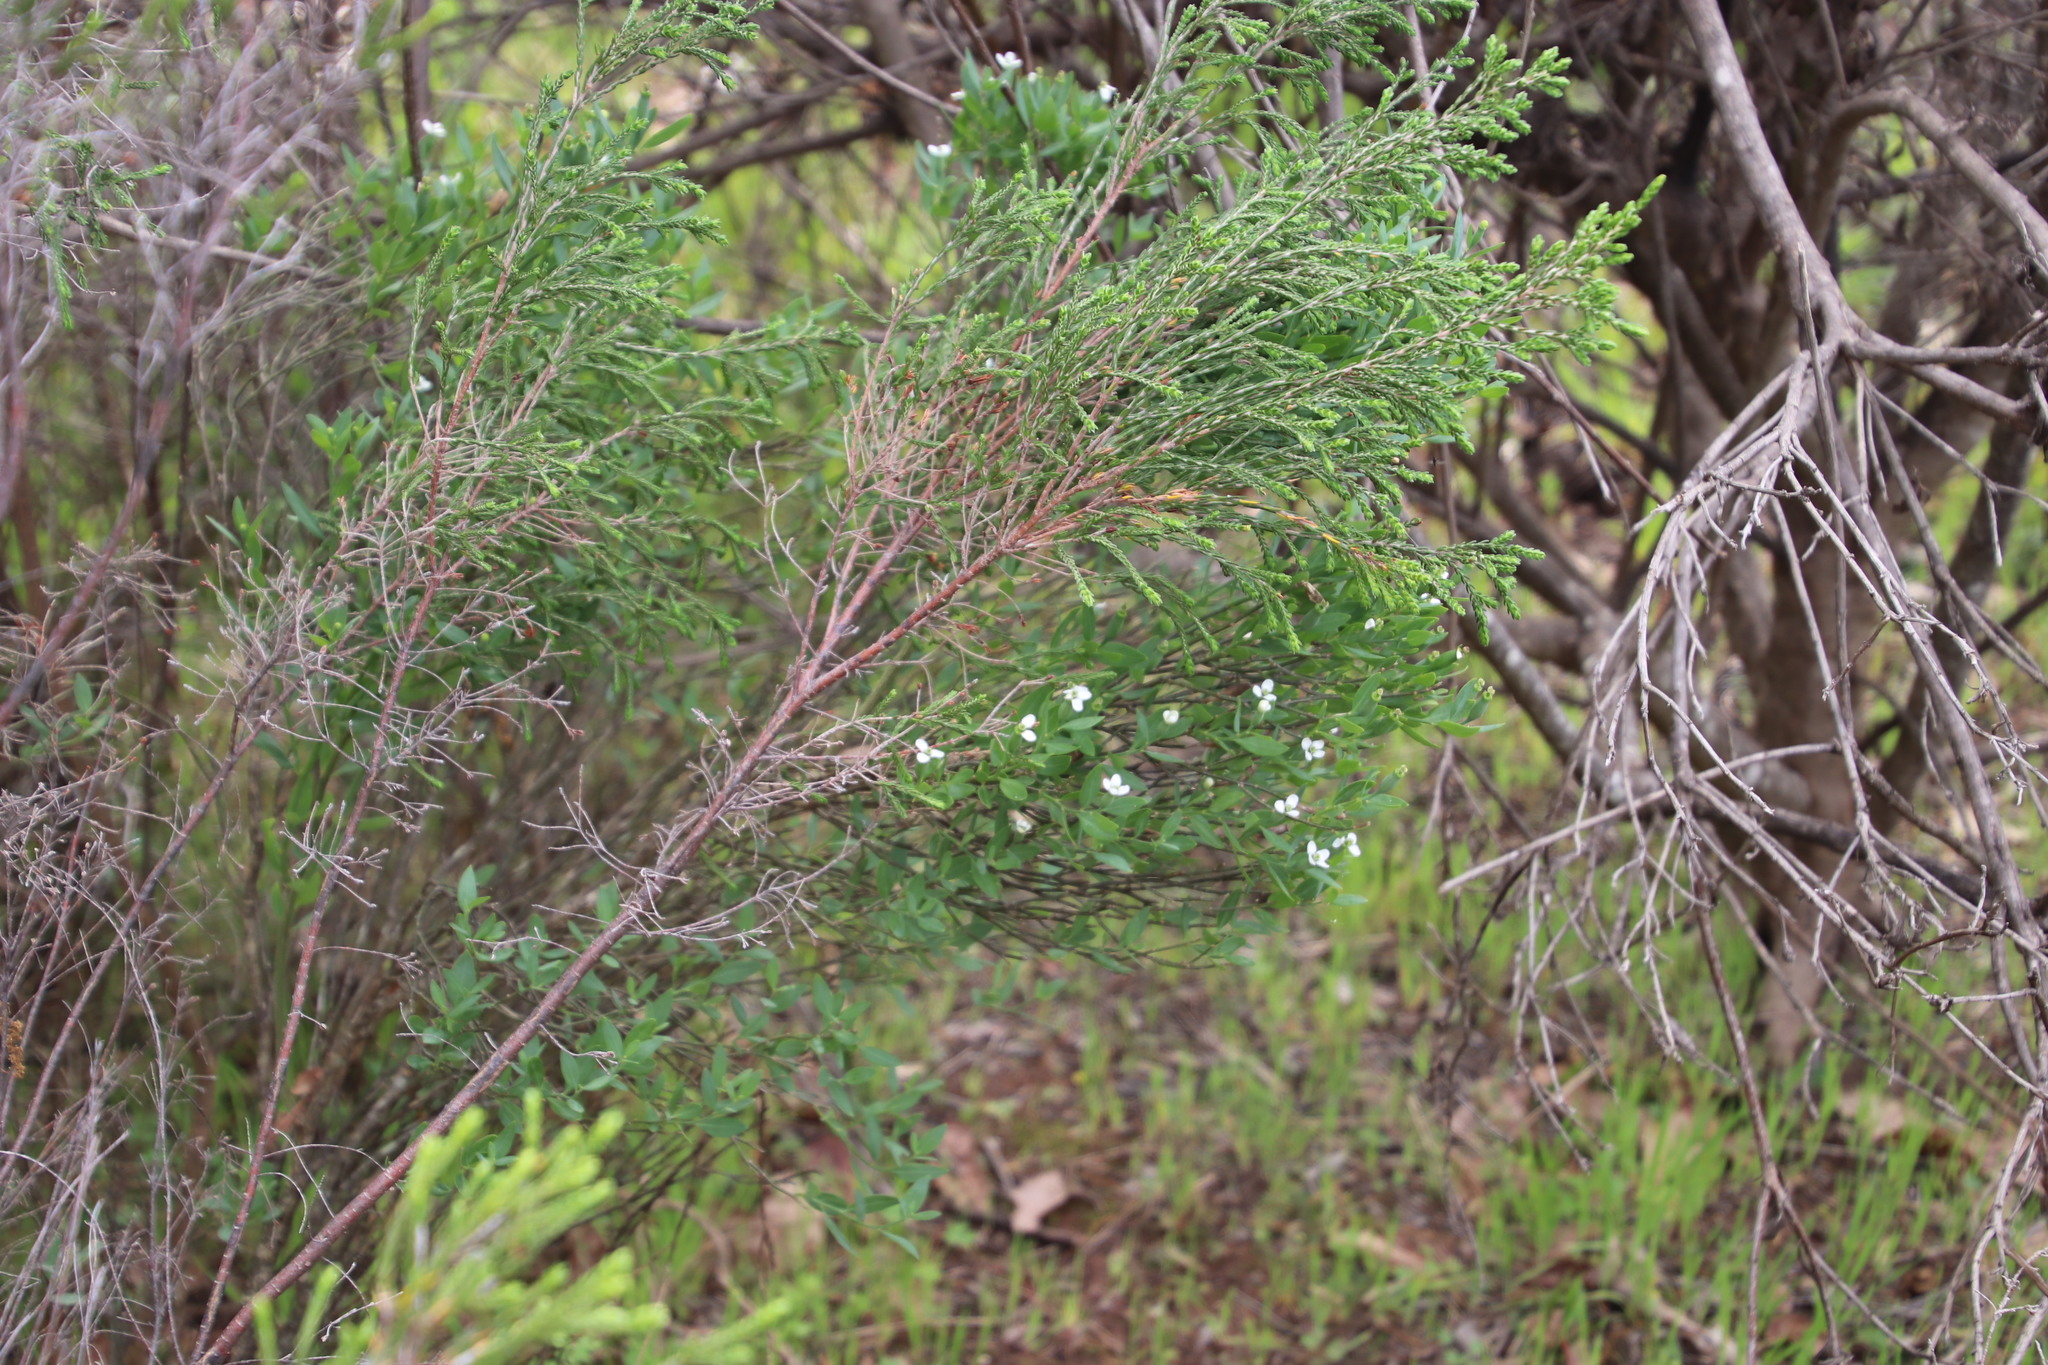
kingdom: Plantae
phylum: Tracheophyta
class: Magnoliopsida
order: Solanales
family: Montiniaceae
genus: Montinia
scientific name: Montinia caryophyllacea
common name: Wild clove-bush
